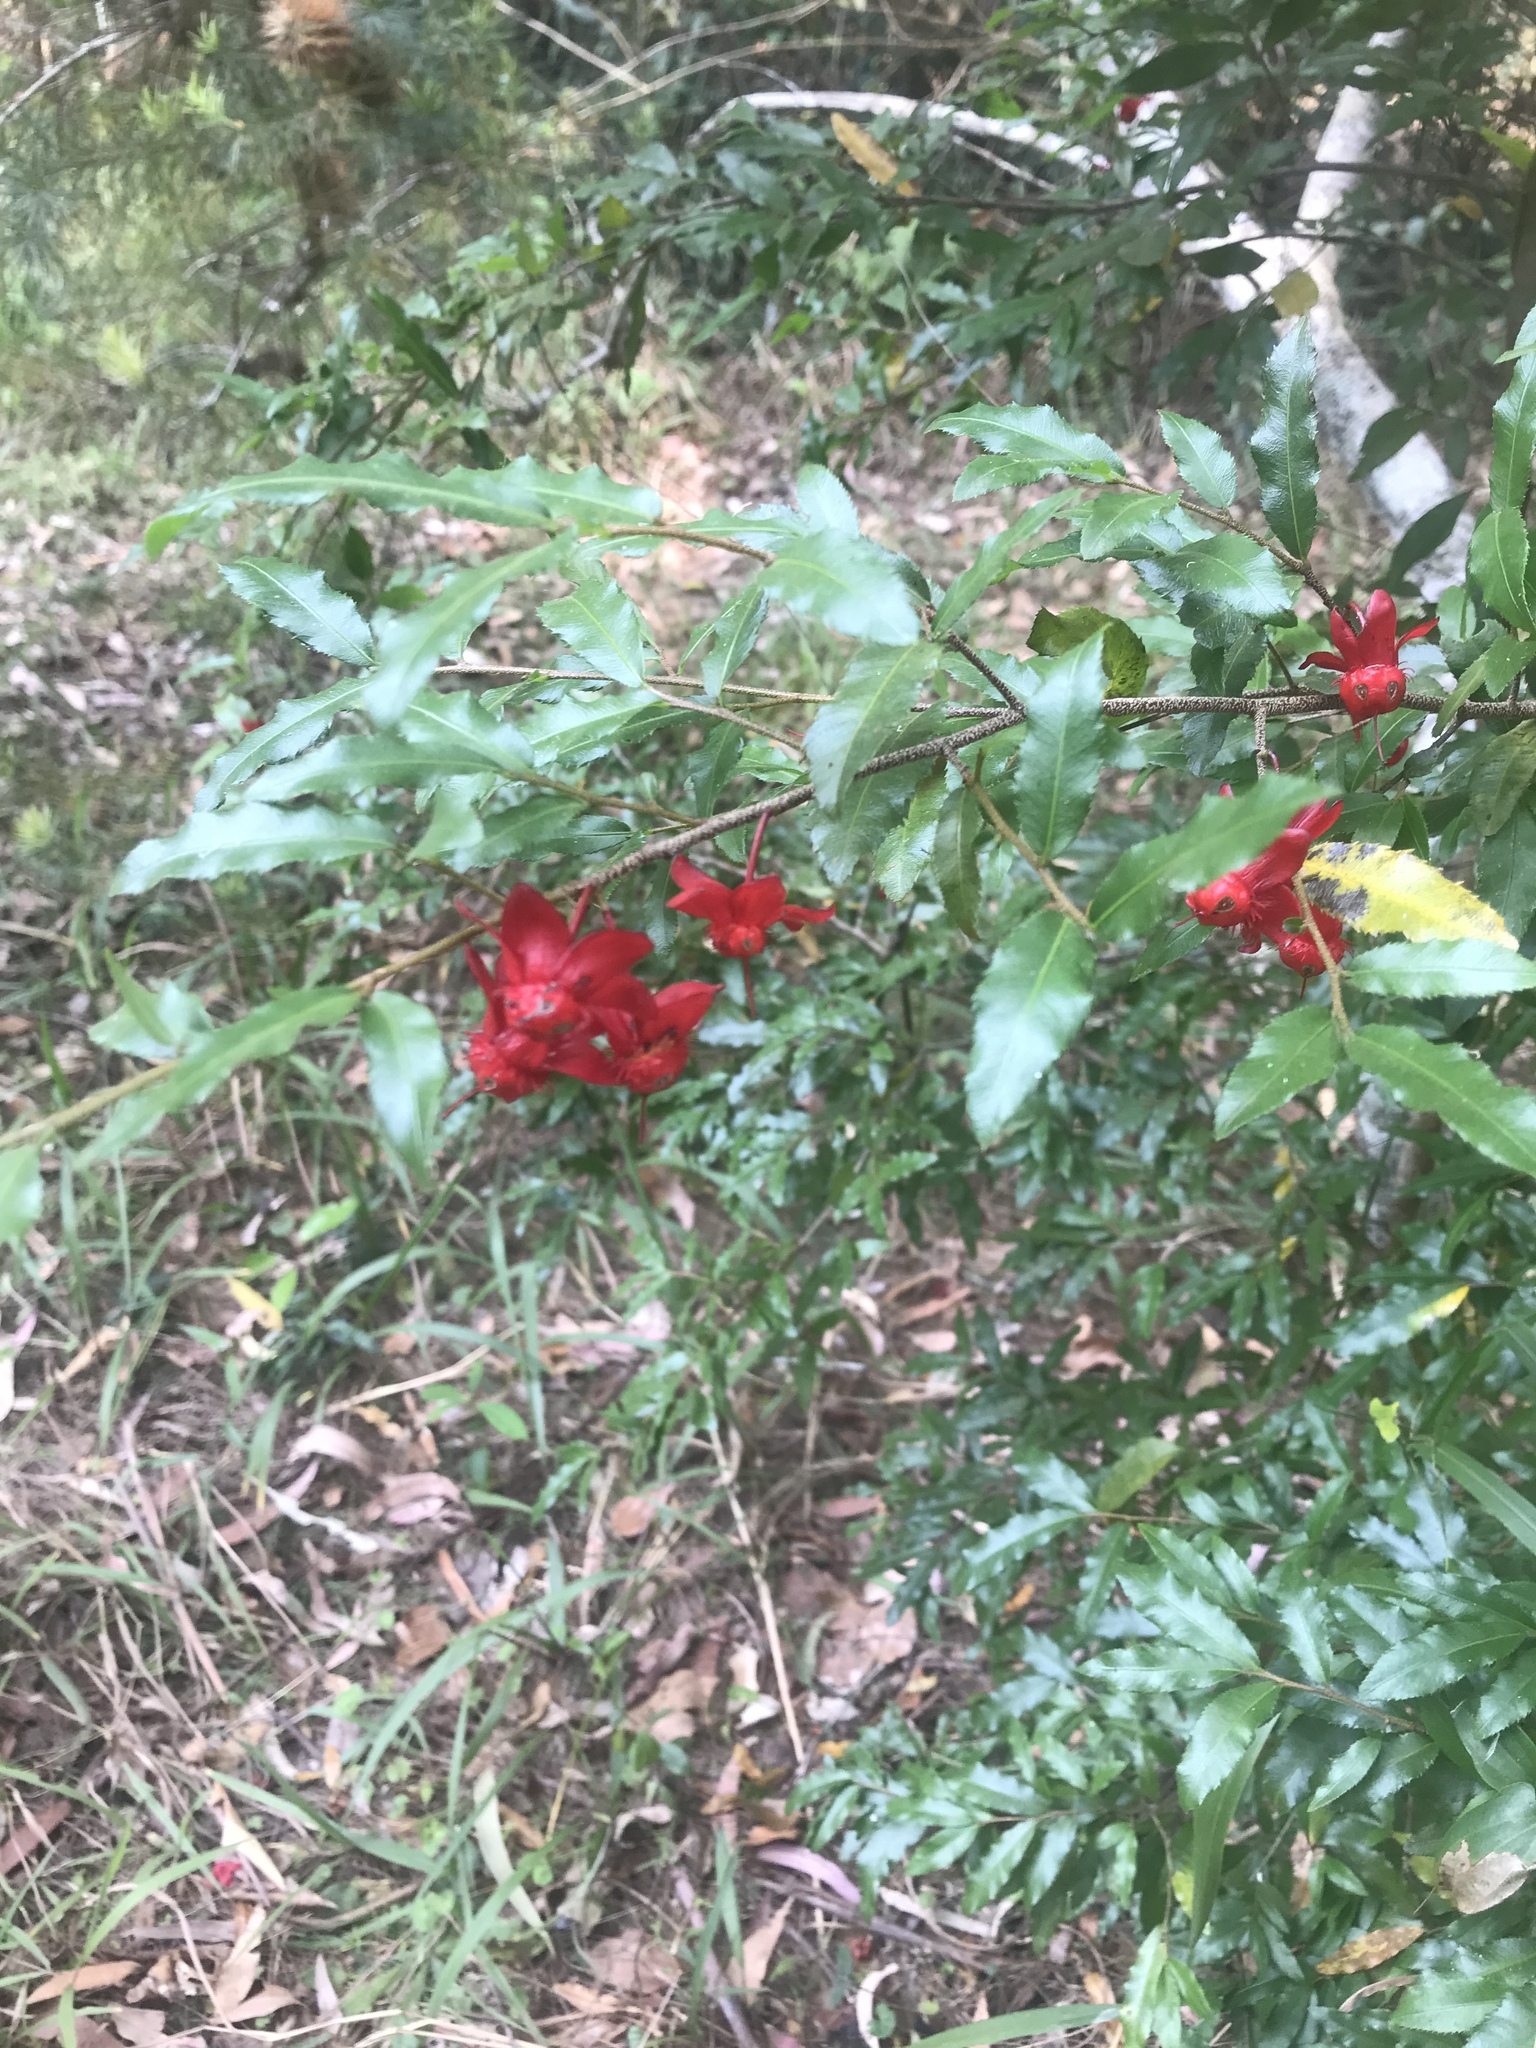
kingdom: Plantae
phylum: Tracheophyta
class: Magnoliopsida
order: Malpighiales
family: Ochnaceae
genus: Ochna
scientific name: Ochna serrulata
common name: Mickey mouse plant
